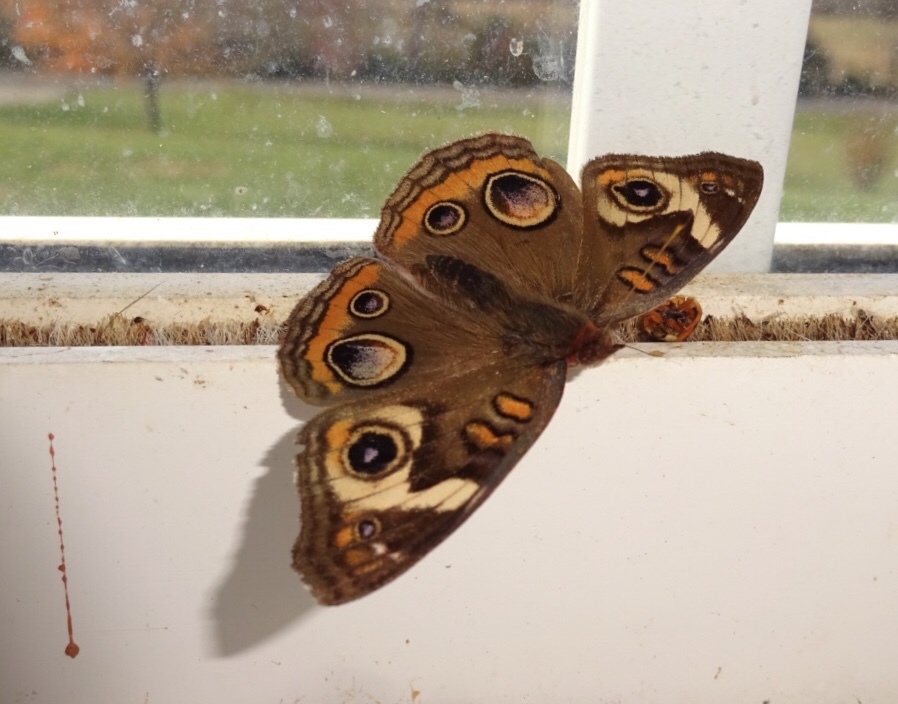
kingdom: Animalia
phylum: Arthropoda
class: Insecta
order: Lepidoptera
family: Nymphalidae
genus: Junonia
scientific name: Junonia coenia
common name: Common buckeye
